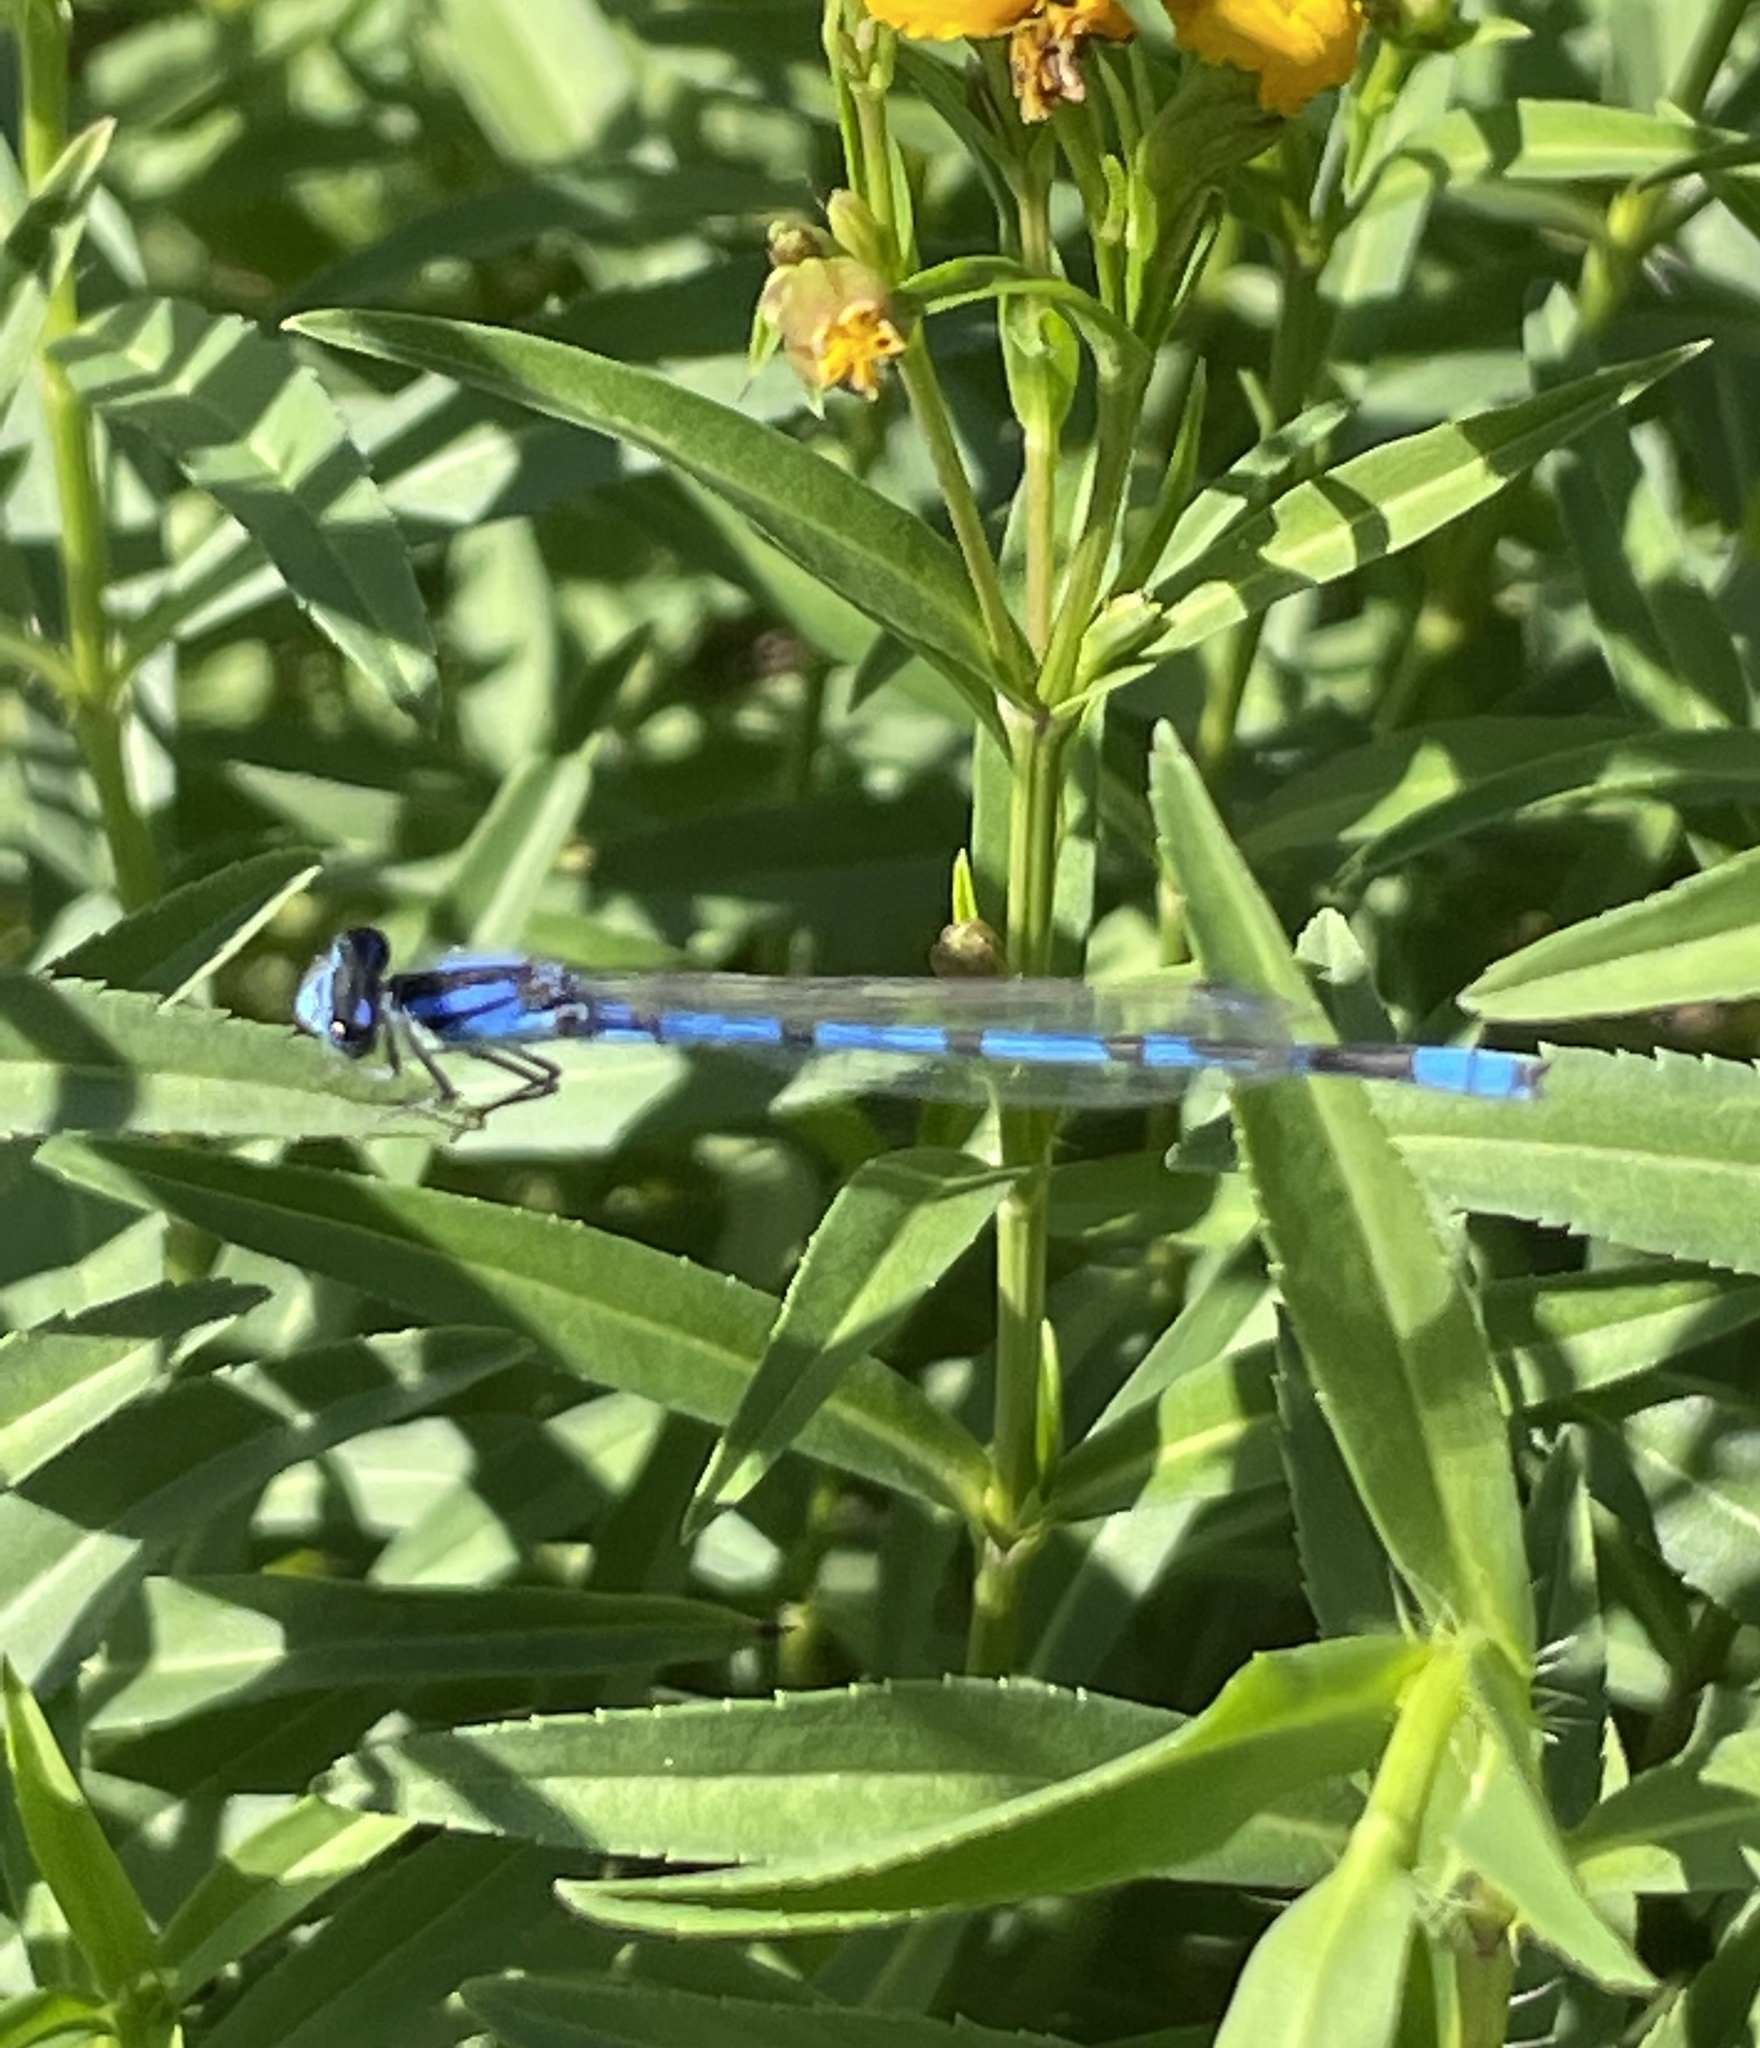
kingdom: Animalia
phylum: Arthropoda
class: Insecta
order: Odonata
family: Coenagrionidae
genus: Enallagma
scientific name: Enallagma civile
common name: Damselfly
